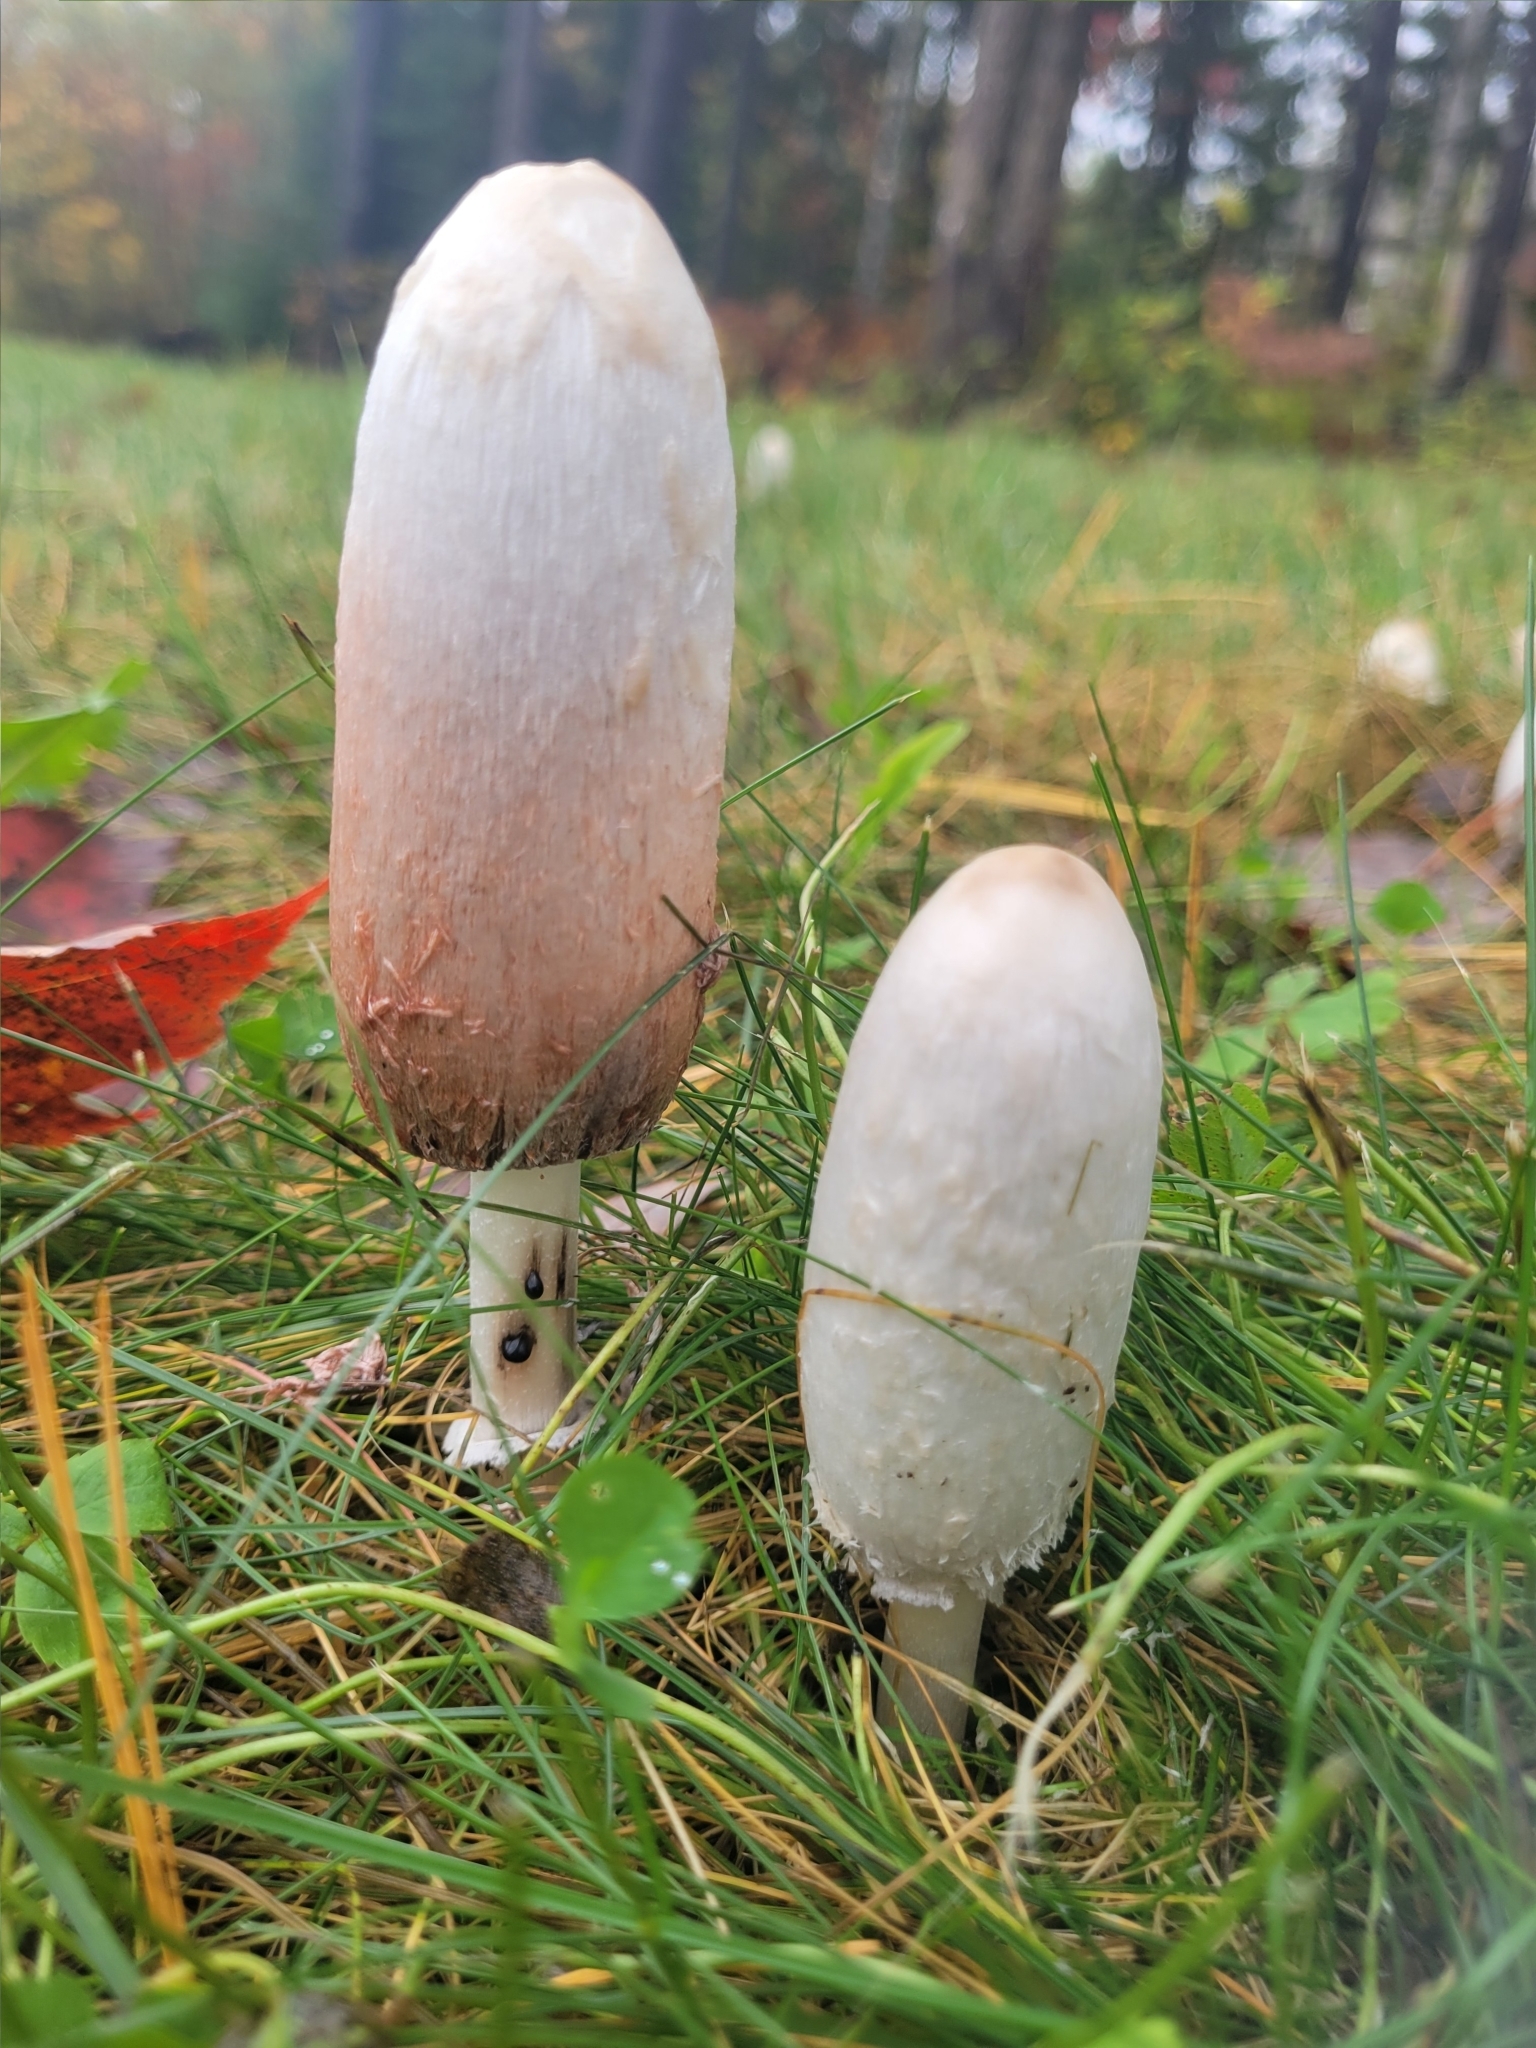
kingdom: Fungi
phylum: Basidiomycota
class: Agaricomycetes
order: Agaricales
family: Agaricaceae
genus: Coprinus
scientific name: Coprinus comatus
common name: Lawyer's wig
